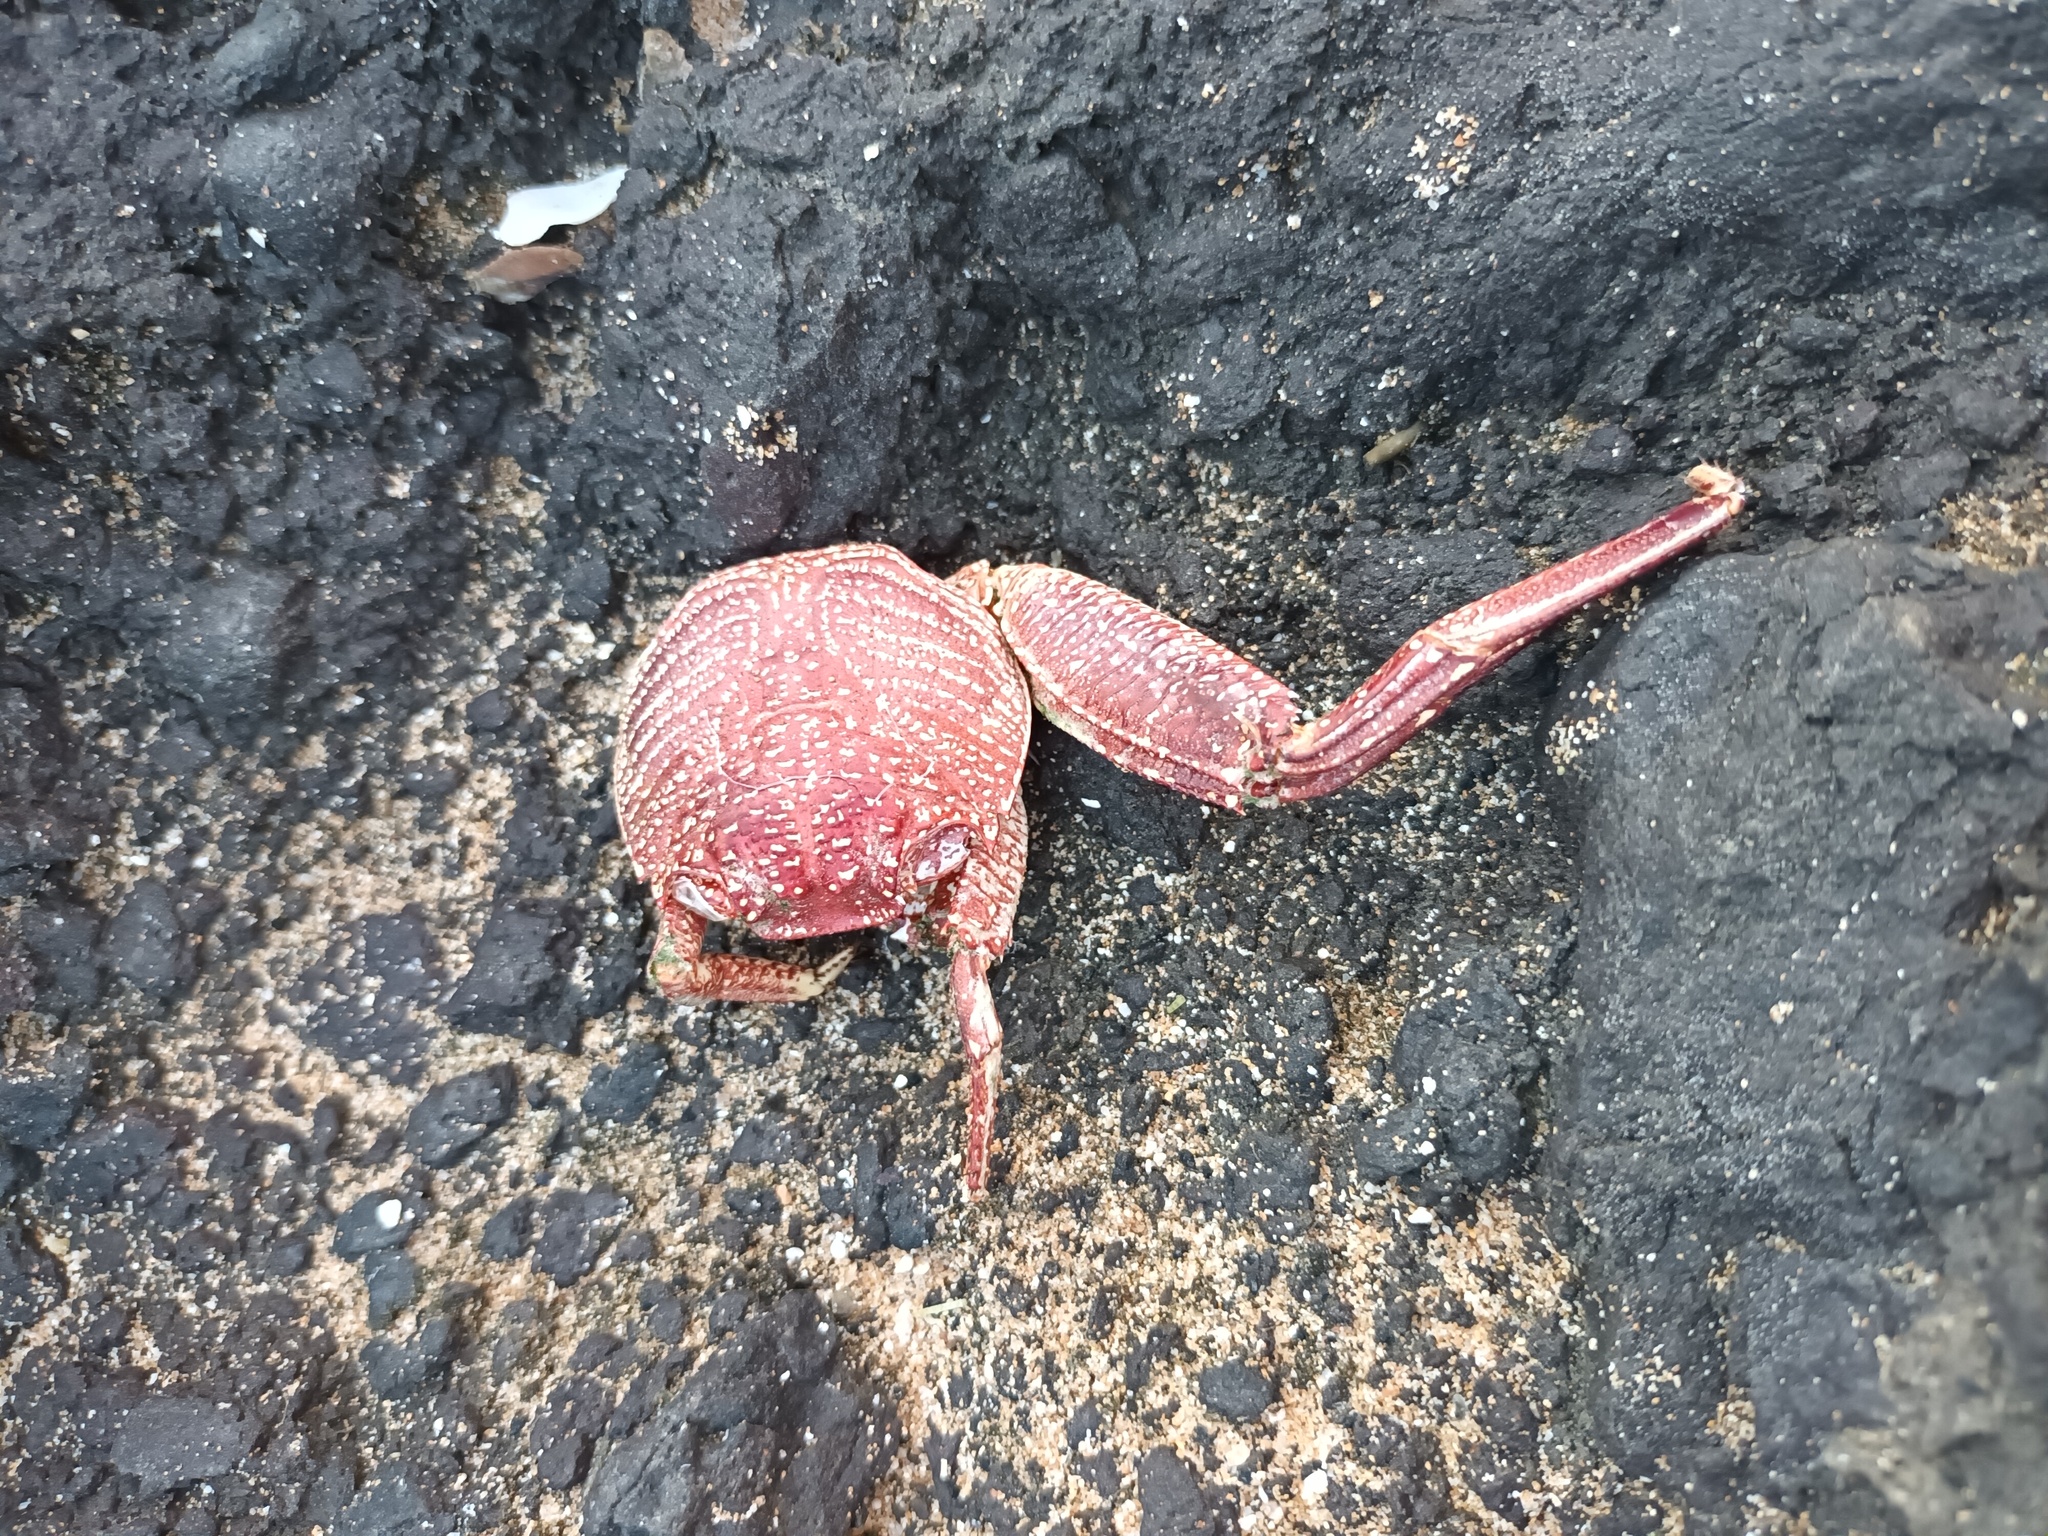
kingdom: Animalia
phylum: Arthropoda
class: Malacostraca
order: Decapoda
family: Grapsidae
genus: Grapsus
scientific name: Grapsus tenuicrustatus
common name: Natal lightfoot crab
